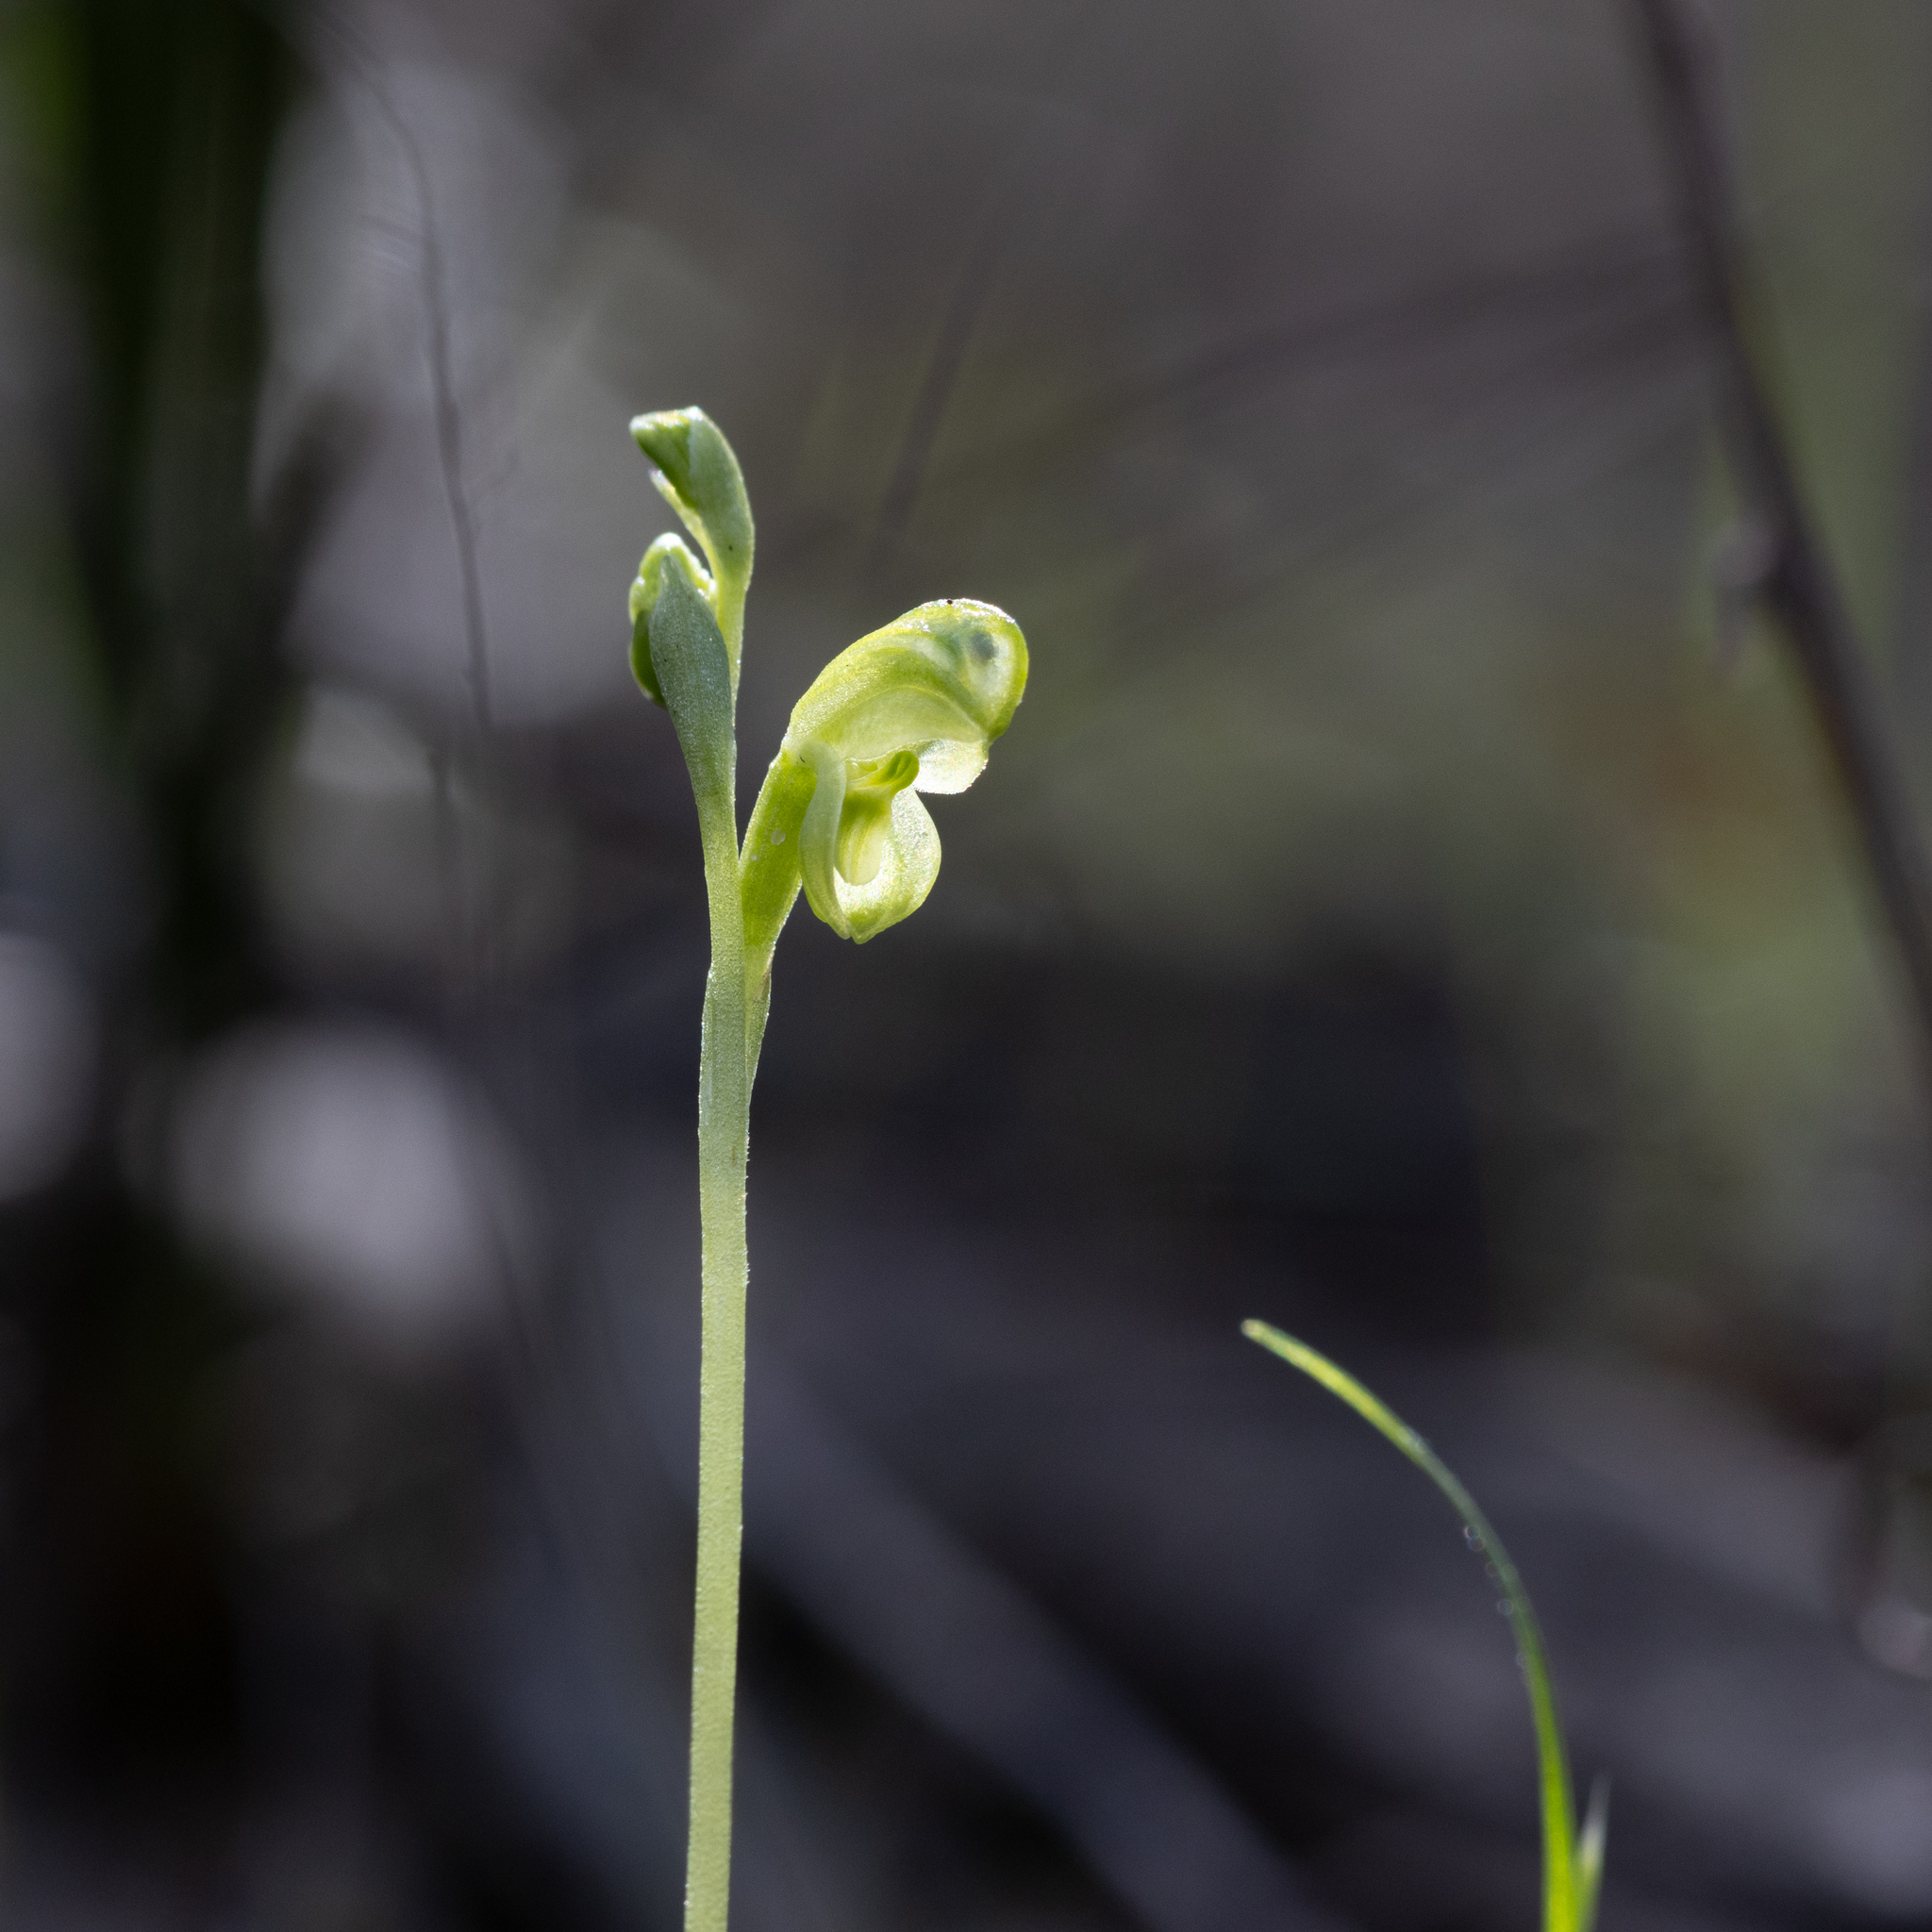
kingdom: Plantae
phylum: Tracheophyta
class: Liliopsida
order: Asparagales
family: Orchidaceae
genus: Pterostylis
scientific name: Pterostylis mutica
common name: Midget greenhood
